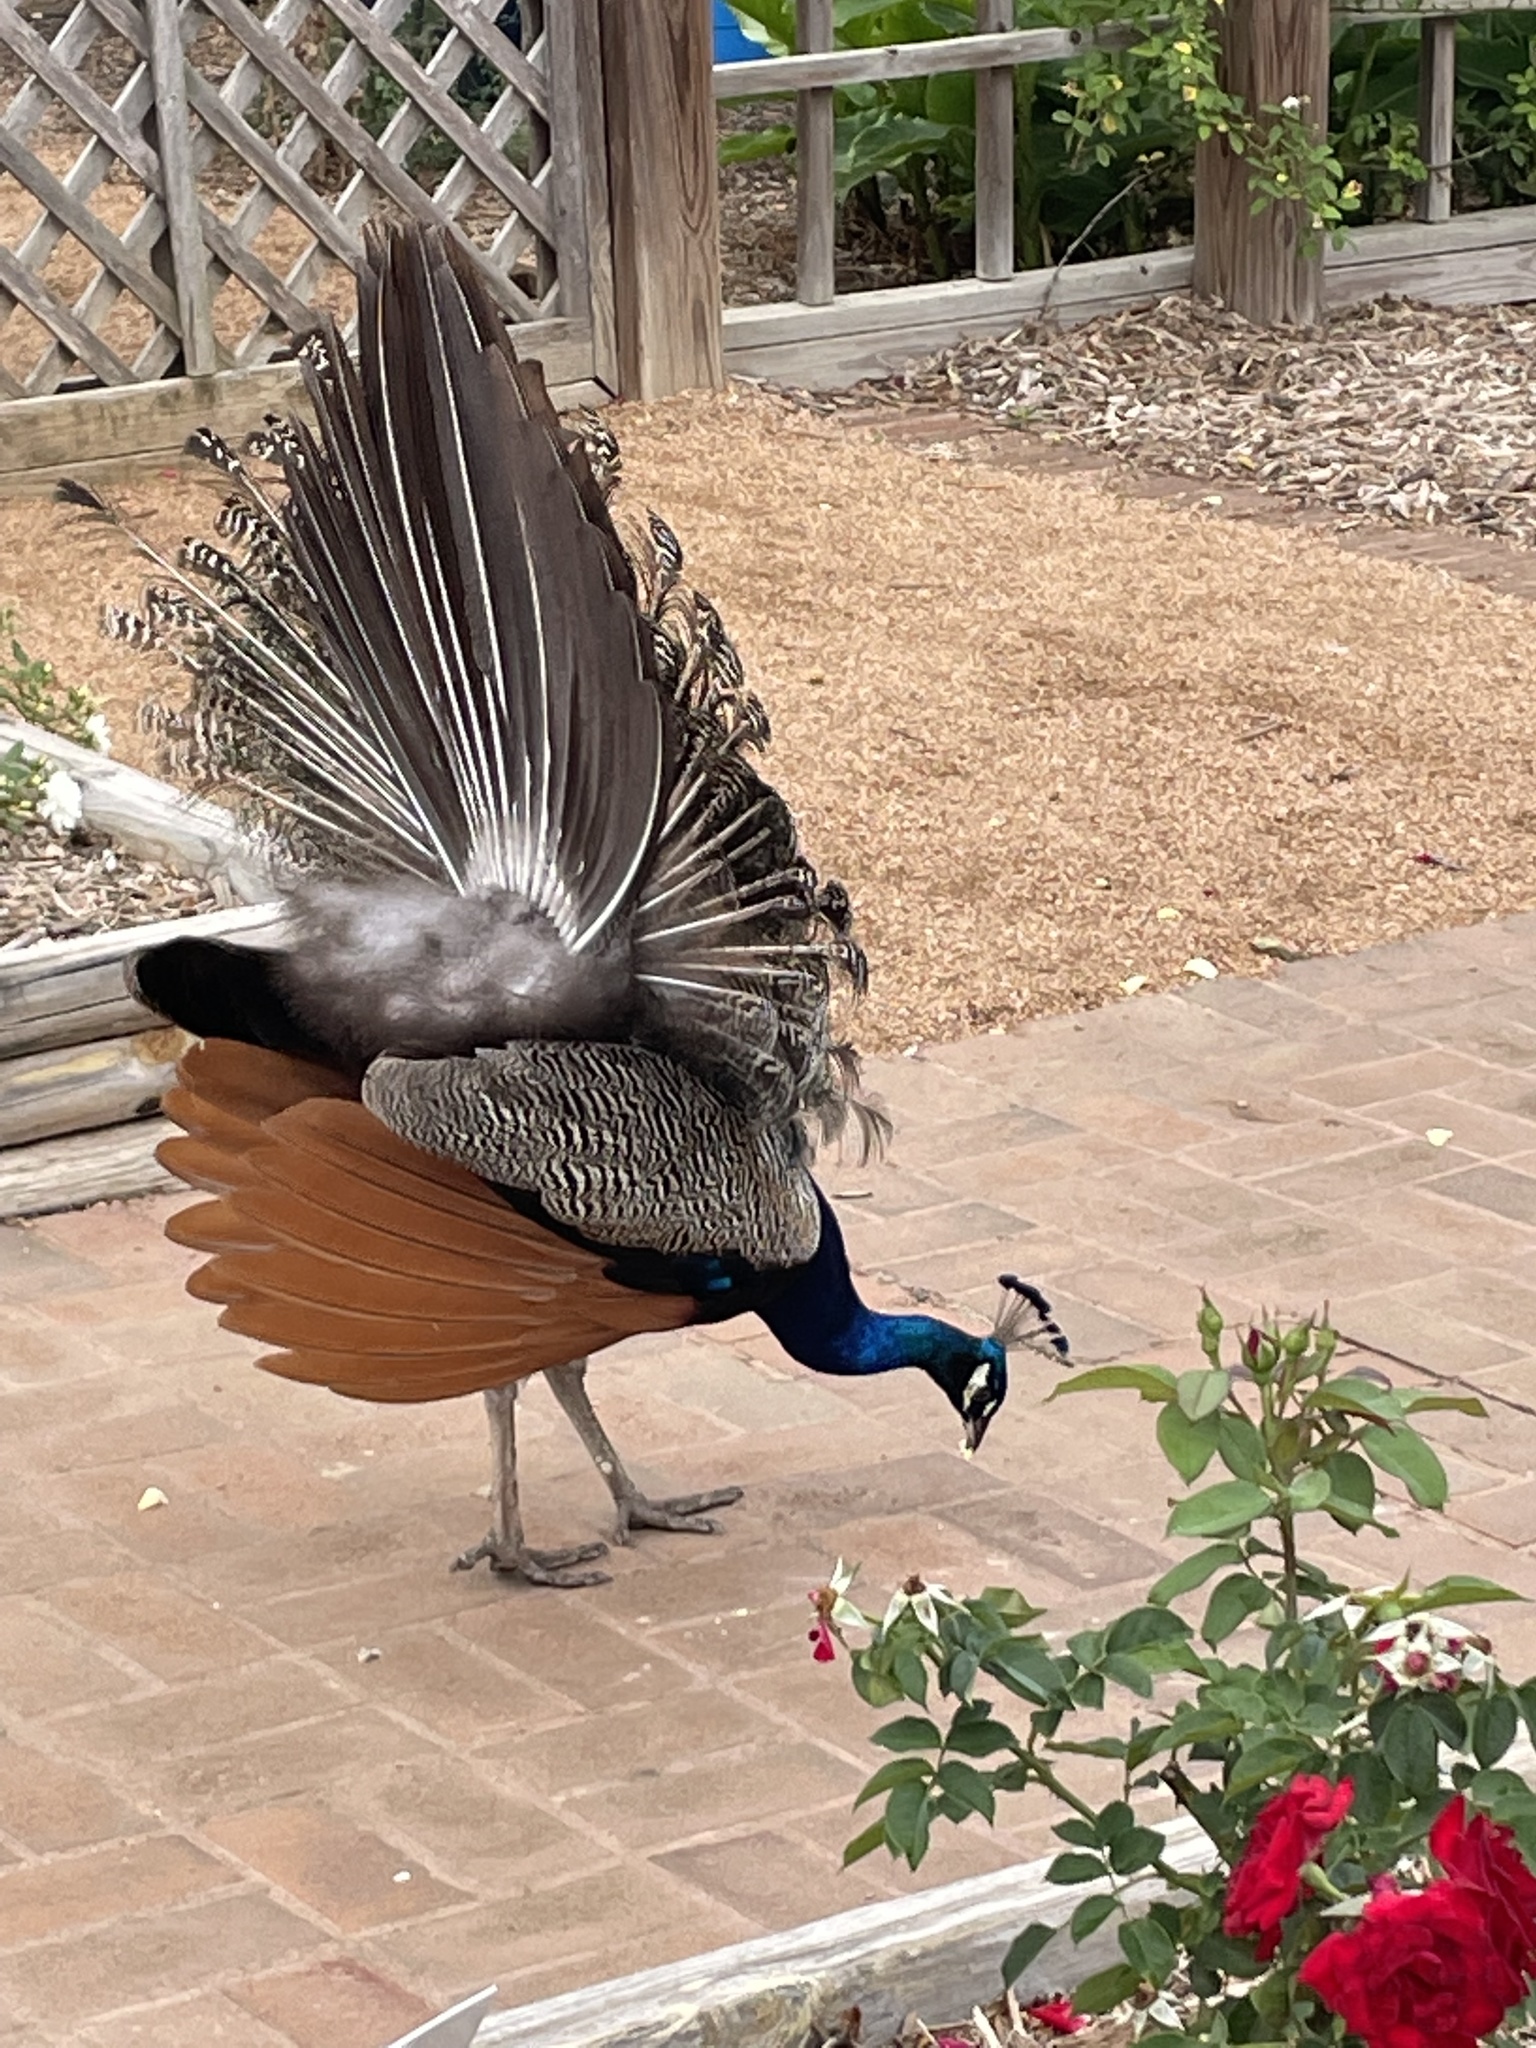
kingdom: Animalia
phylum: Chordata
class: Aves
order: Galliformes
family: Phasianidae
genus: Pavo
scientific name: Pavo cristatus
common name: Indian peafowl
